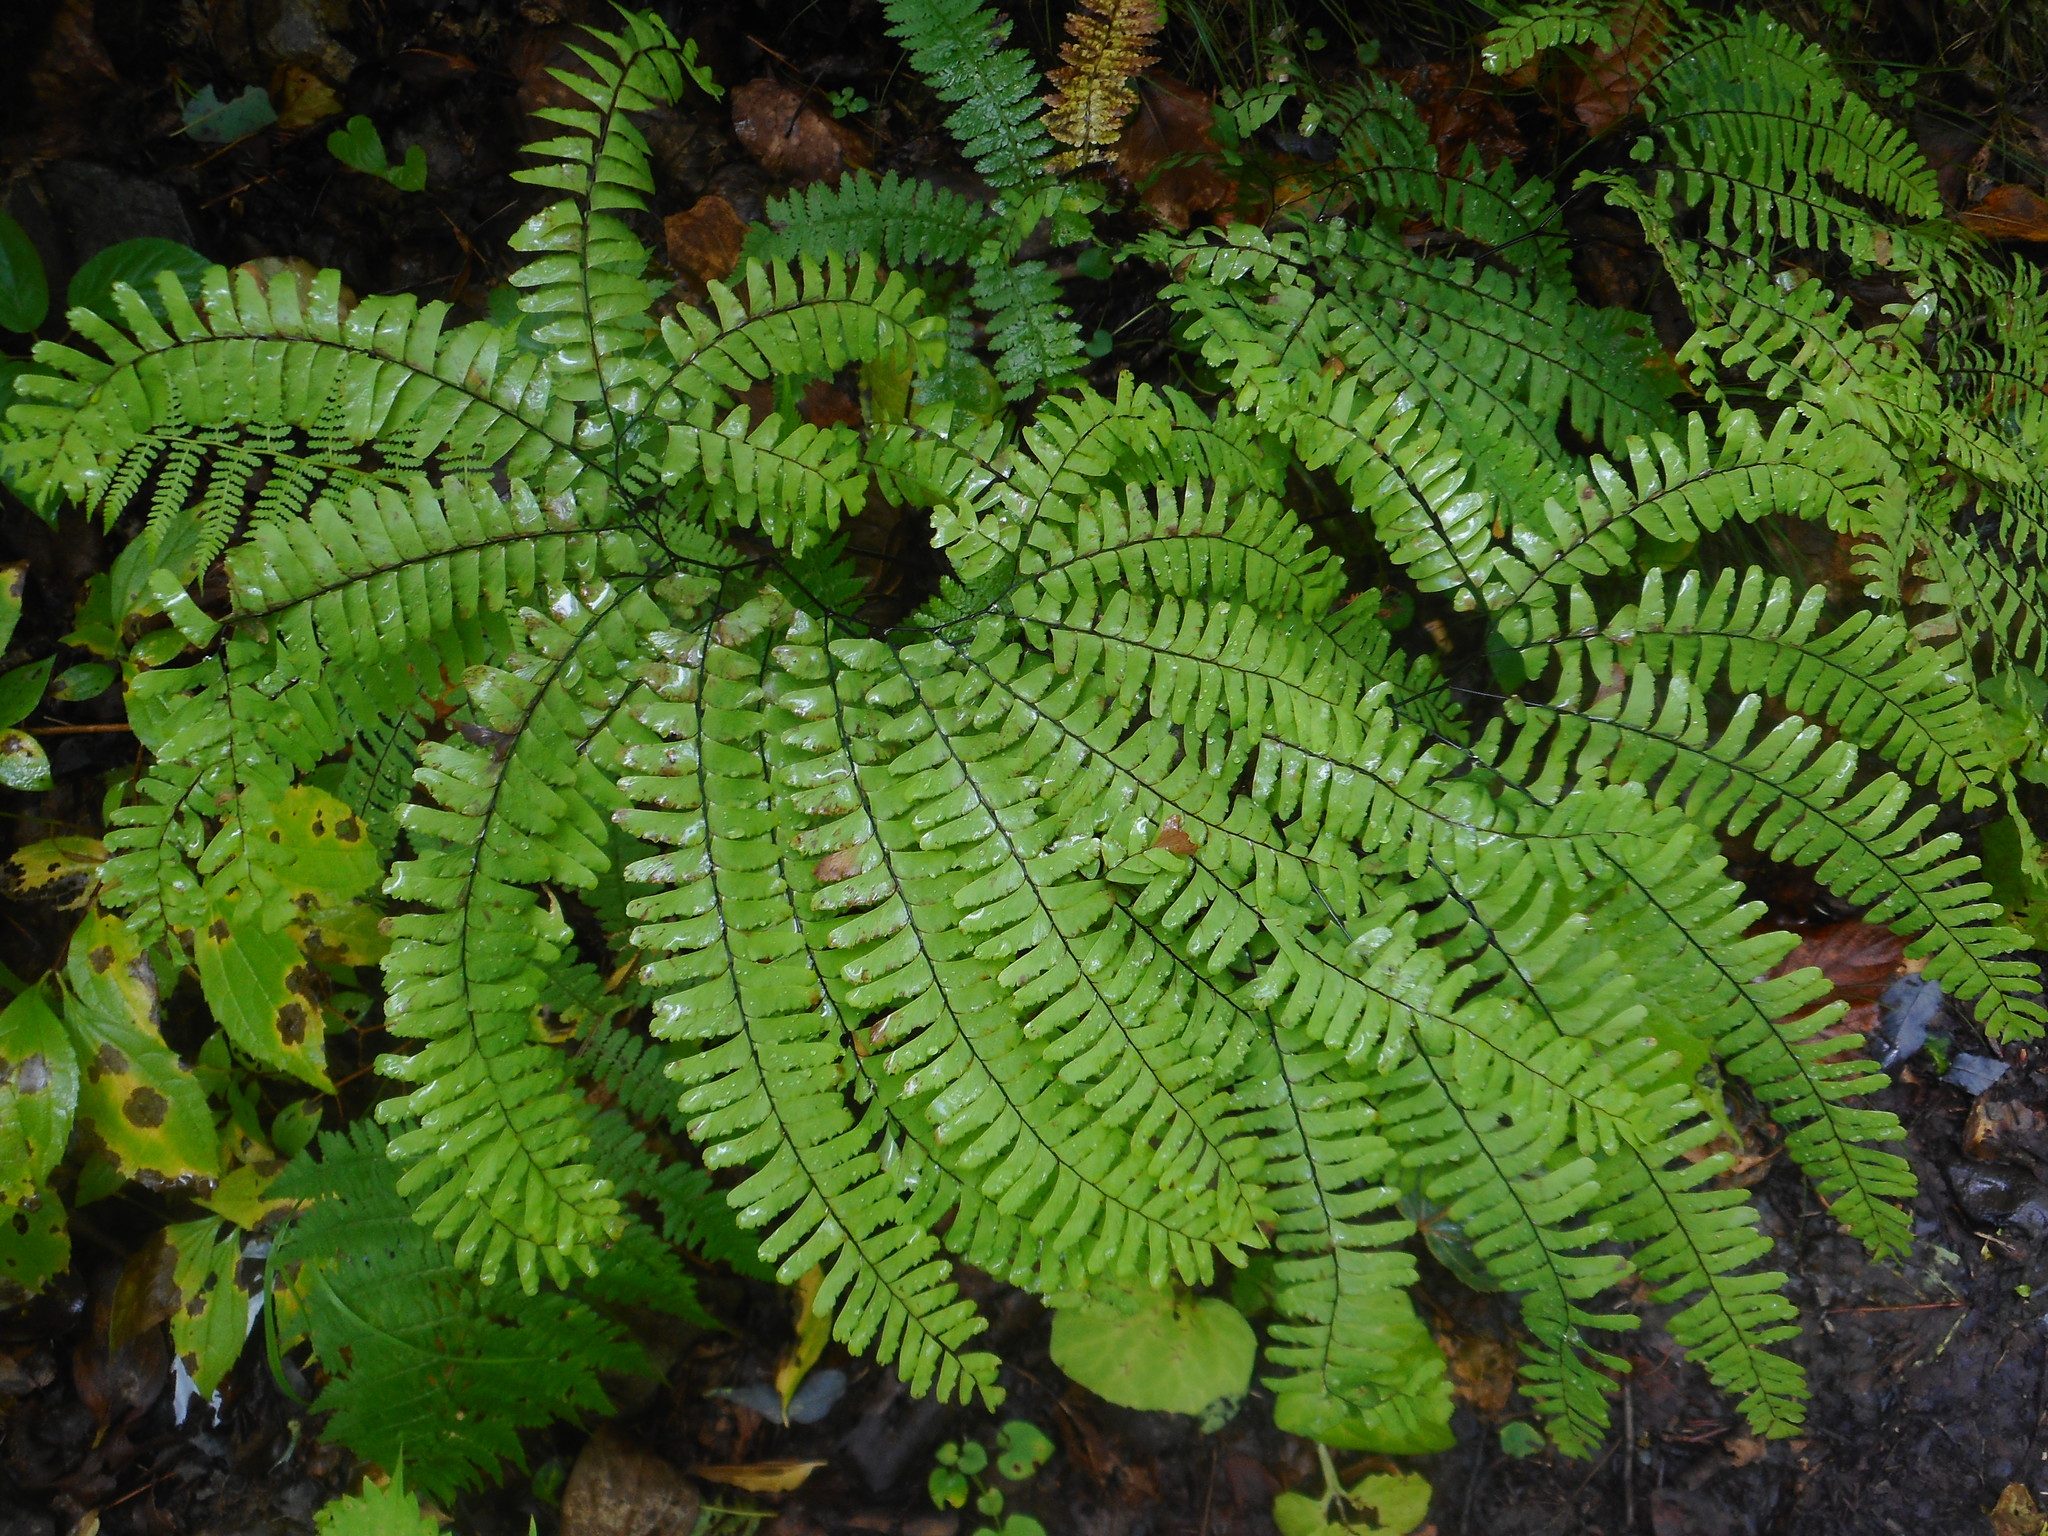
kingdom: Plantae
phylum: Tracheophyta
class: Polypodiopsida
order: Polypodiales
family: Pteridaceae
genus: Adiantum
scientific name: Adiantum pedatum
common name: Five-finger fern
